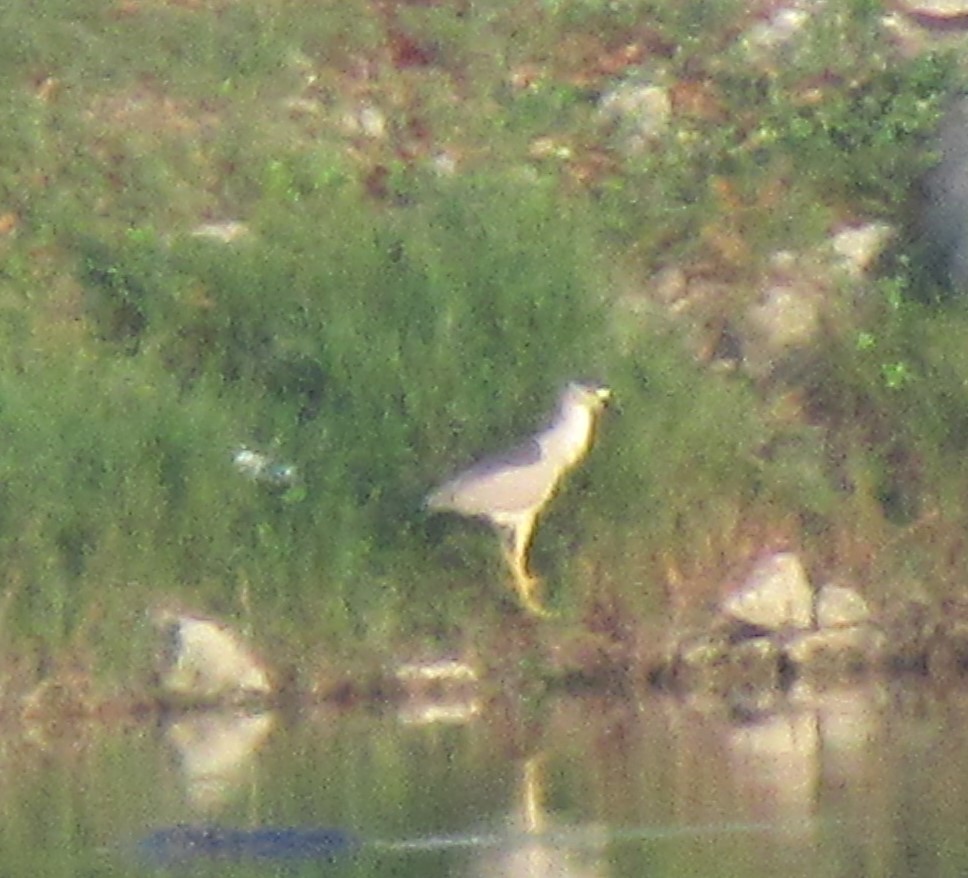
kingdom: Animalia
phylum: Chordata
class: Aves
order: Pelecaniformes
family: Ardeidae
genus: Nycticorax
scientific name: Nycticorax nycticorax
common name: Black-crowned night heron
